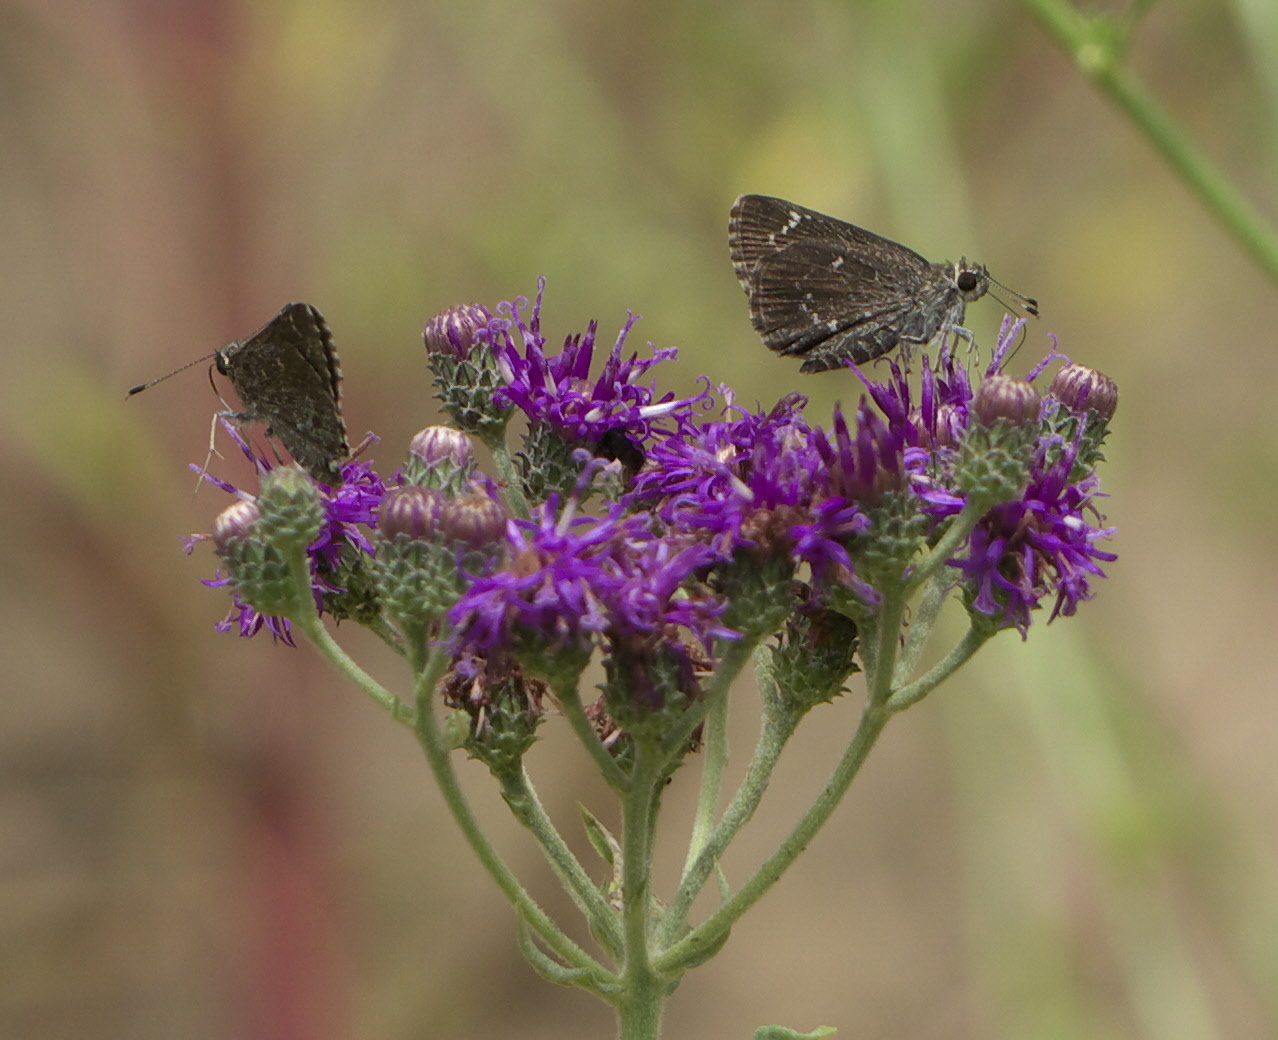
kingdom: Animalia
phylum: Arthropoda
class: Insecta
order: Lepidoptera
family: Hesperiidae
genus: Mastor
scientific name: Mastor celia
